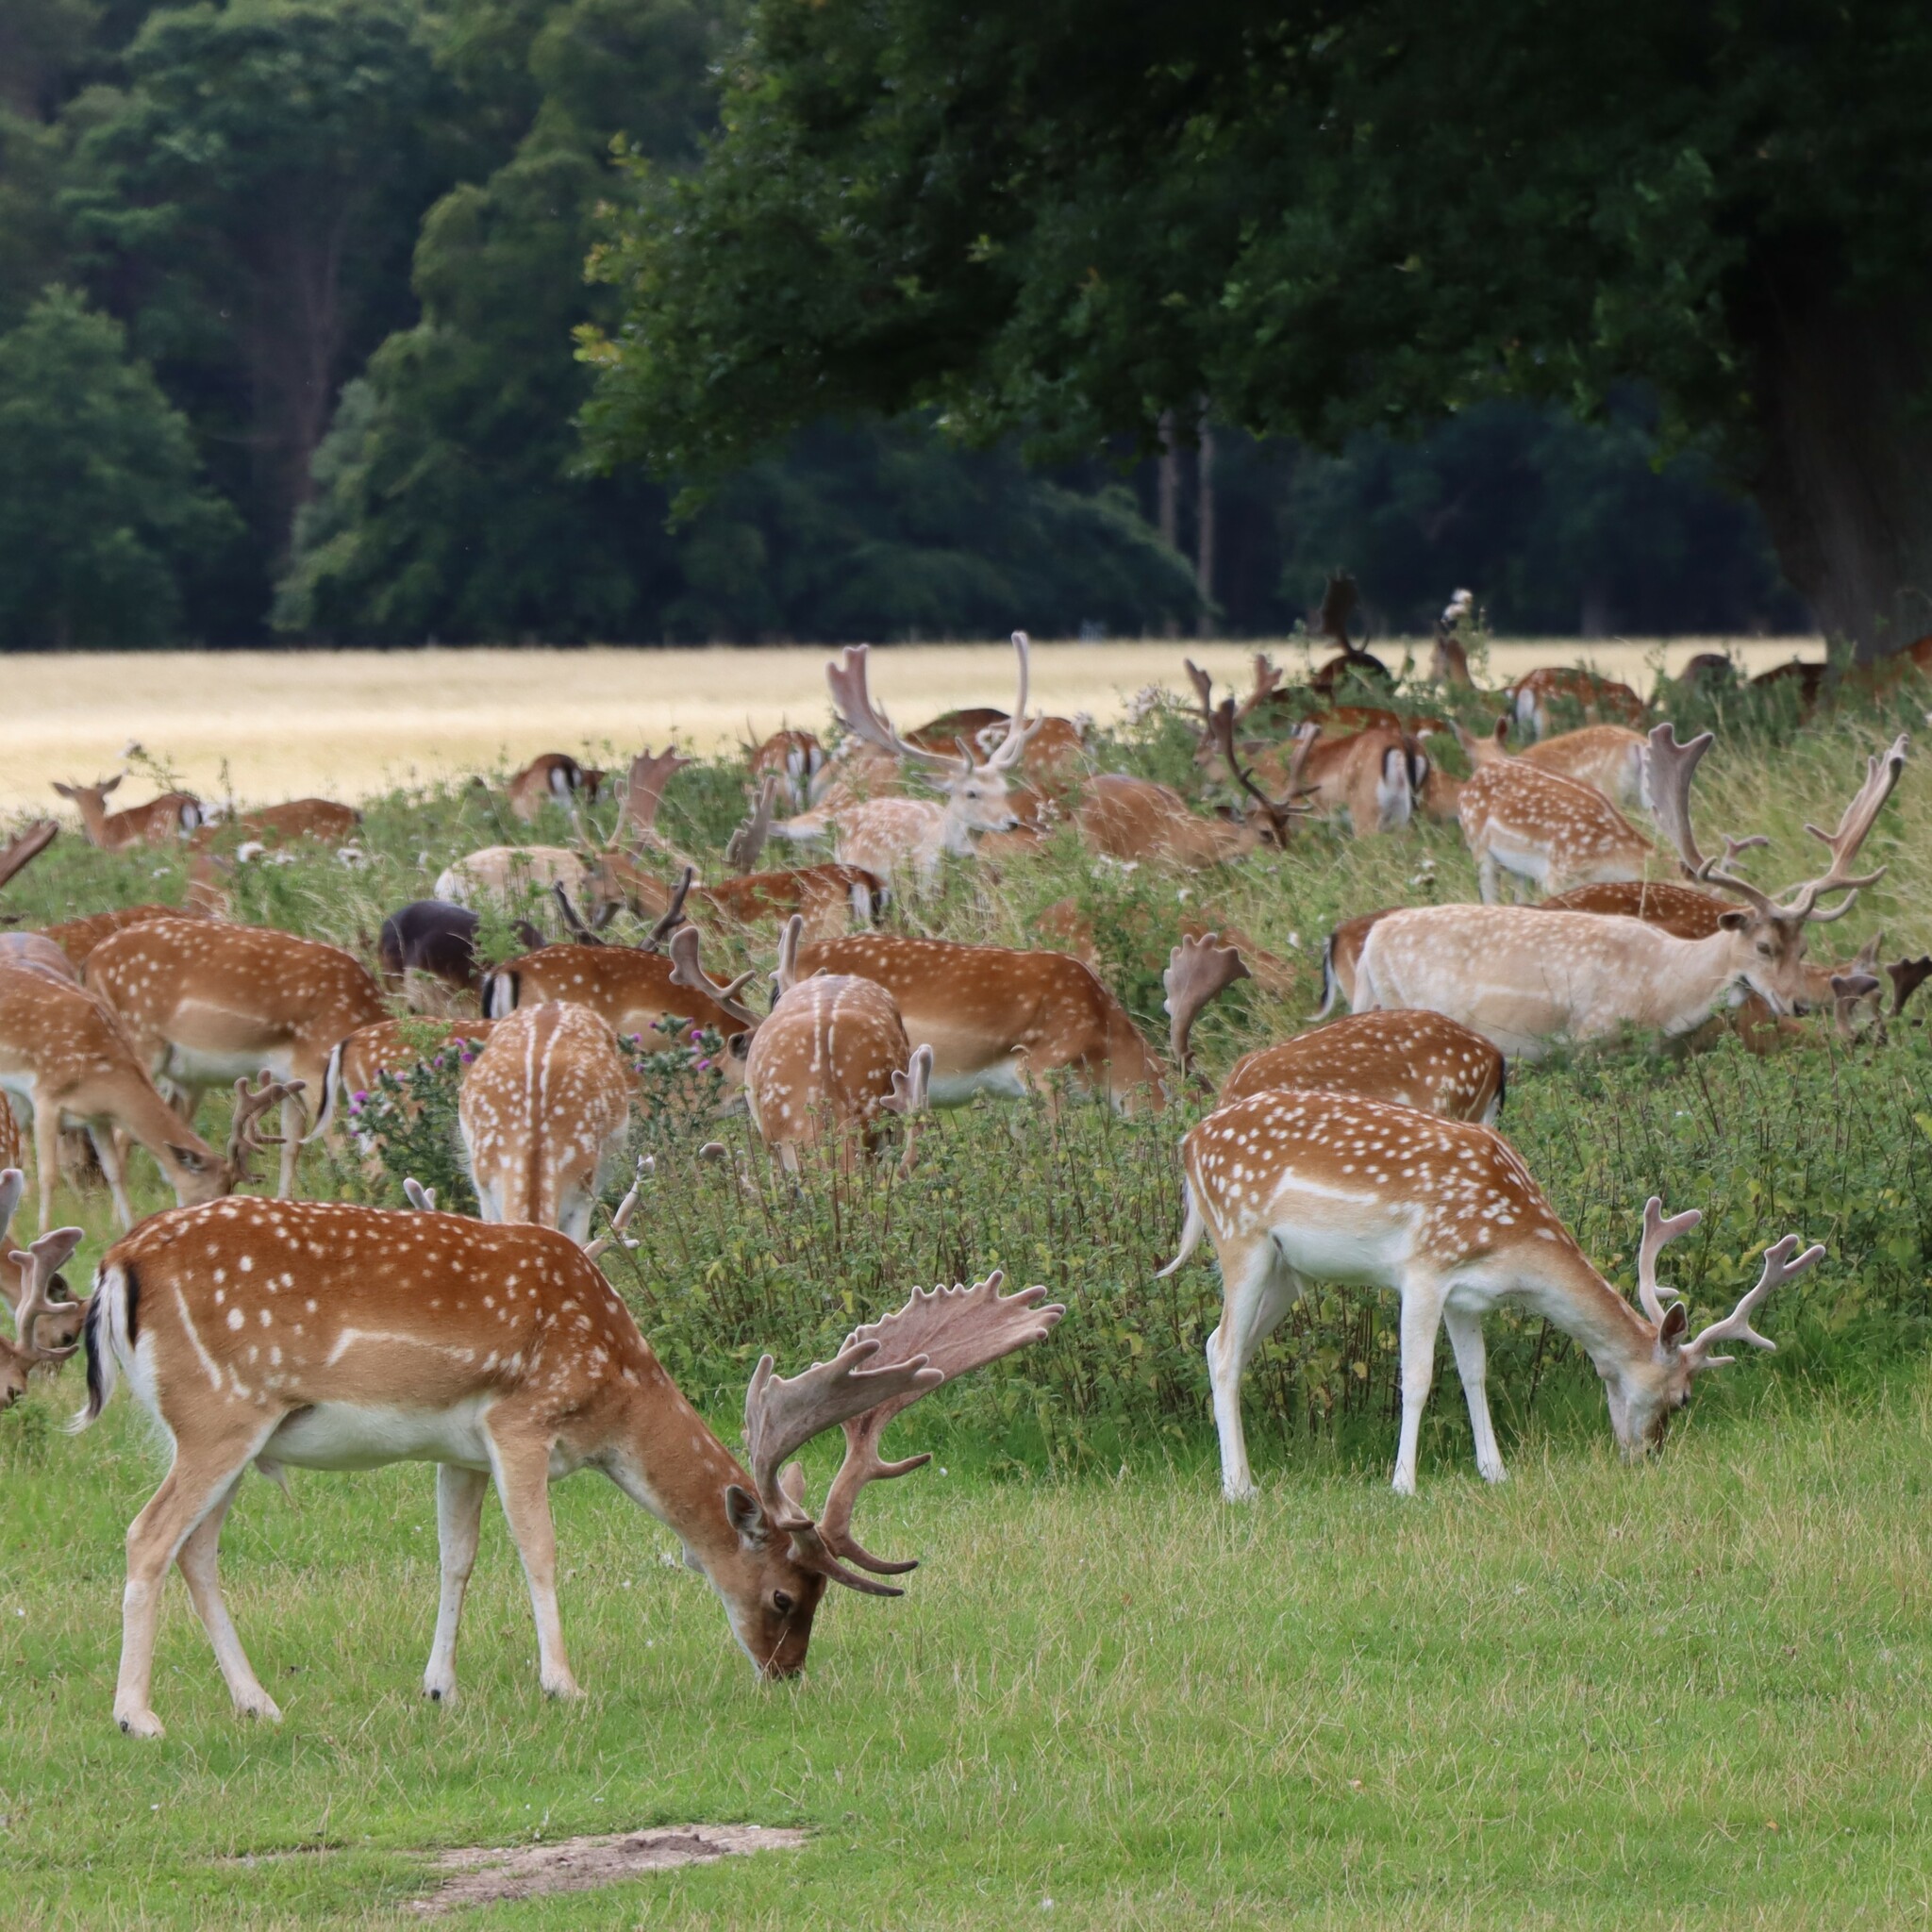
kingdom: Animalia
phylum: Chordata
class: Mammalia
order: Artiodactyla
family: Cervidae
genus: Dama
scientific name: Dama dama
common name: Fallow deer
